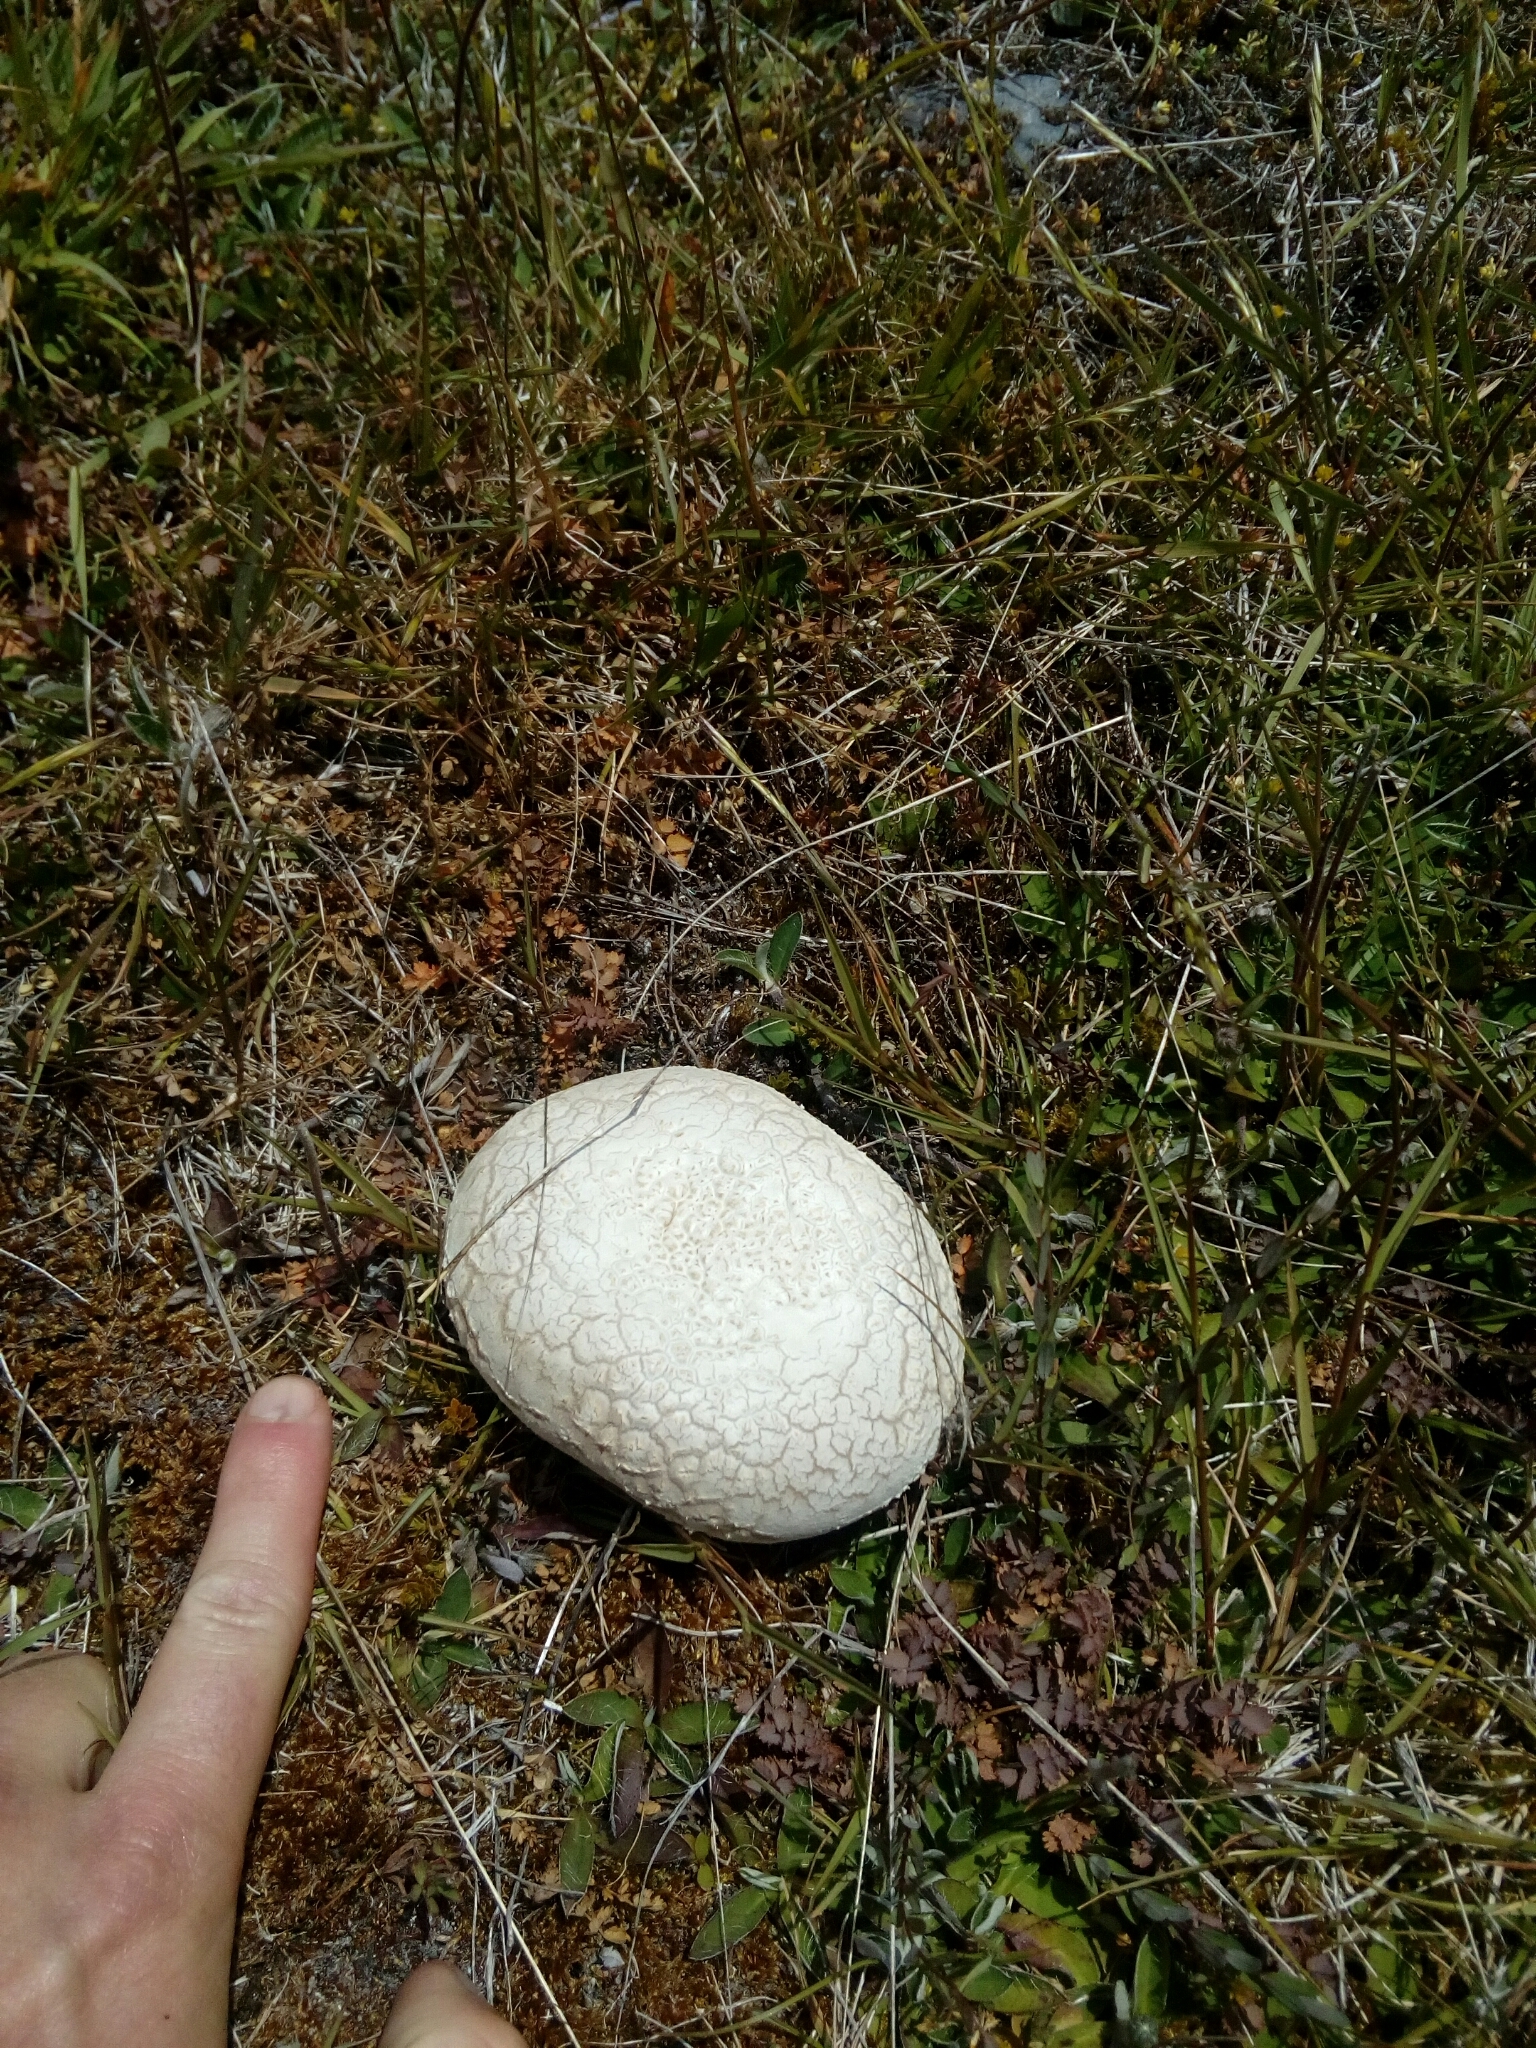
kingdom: Fungi
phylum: Basidiomycota
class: Agaricomycetes
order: Agaricales
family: Lycoperdaceae
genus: Bovista
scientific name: Bovista plumbea
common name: Grey puffball
